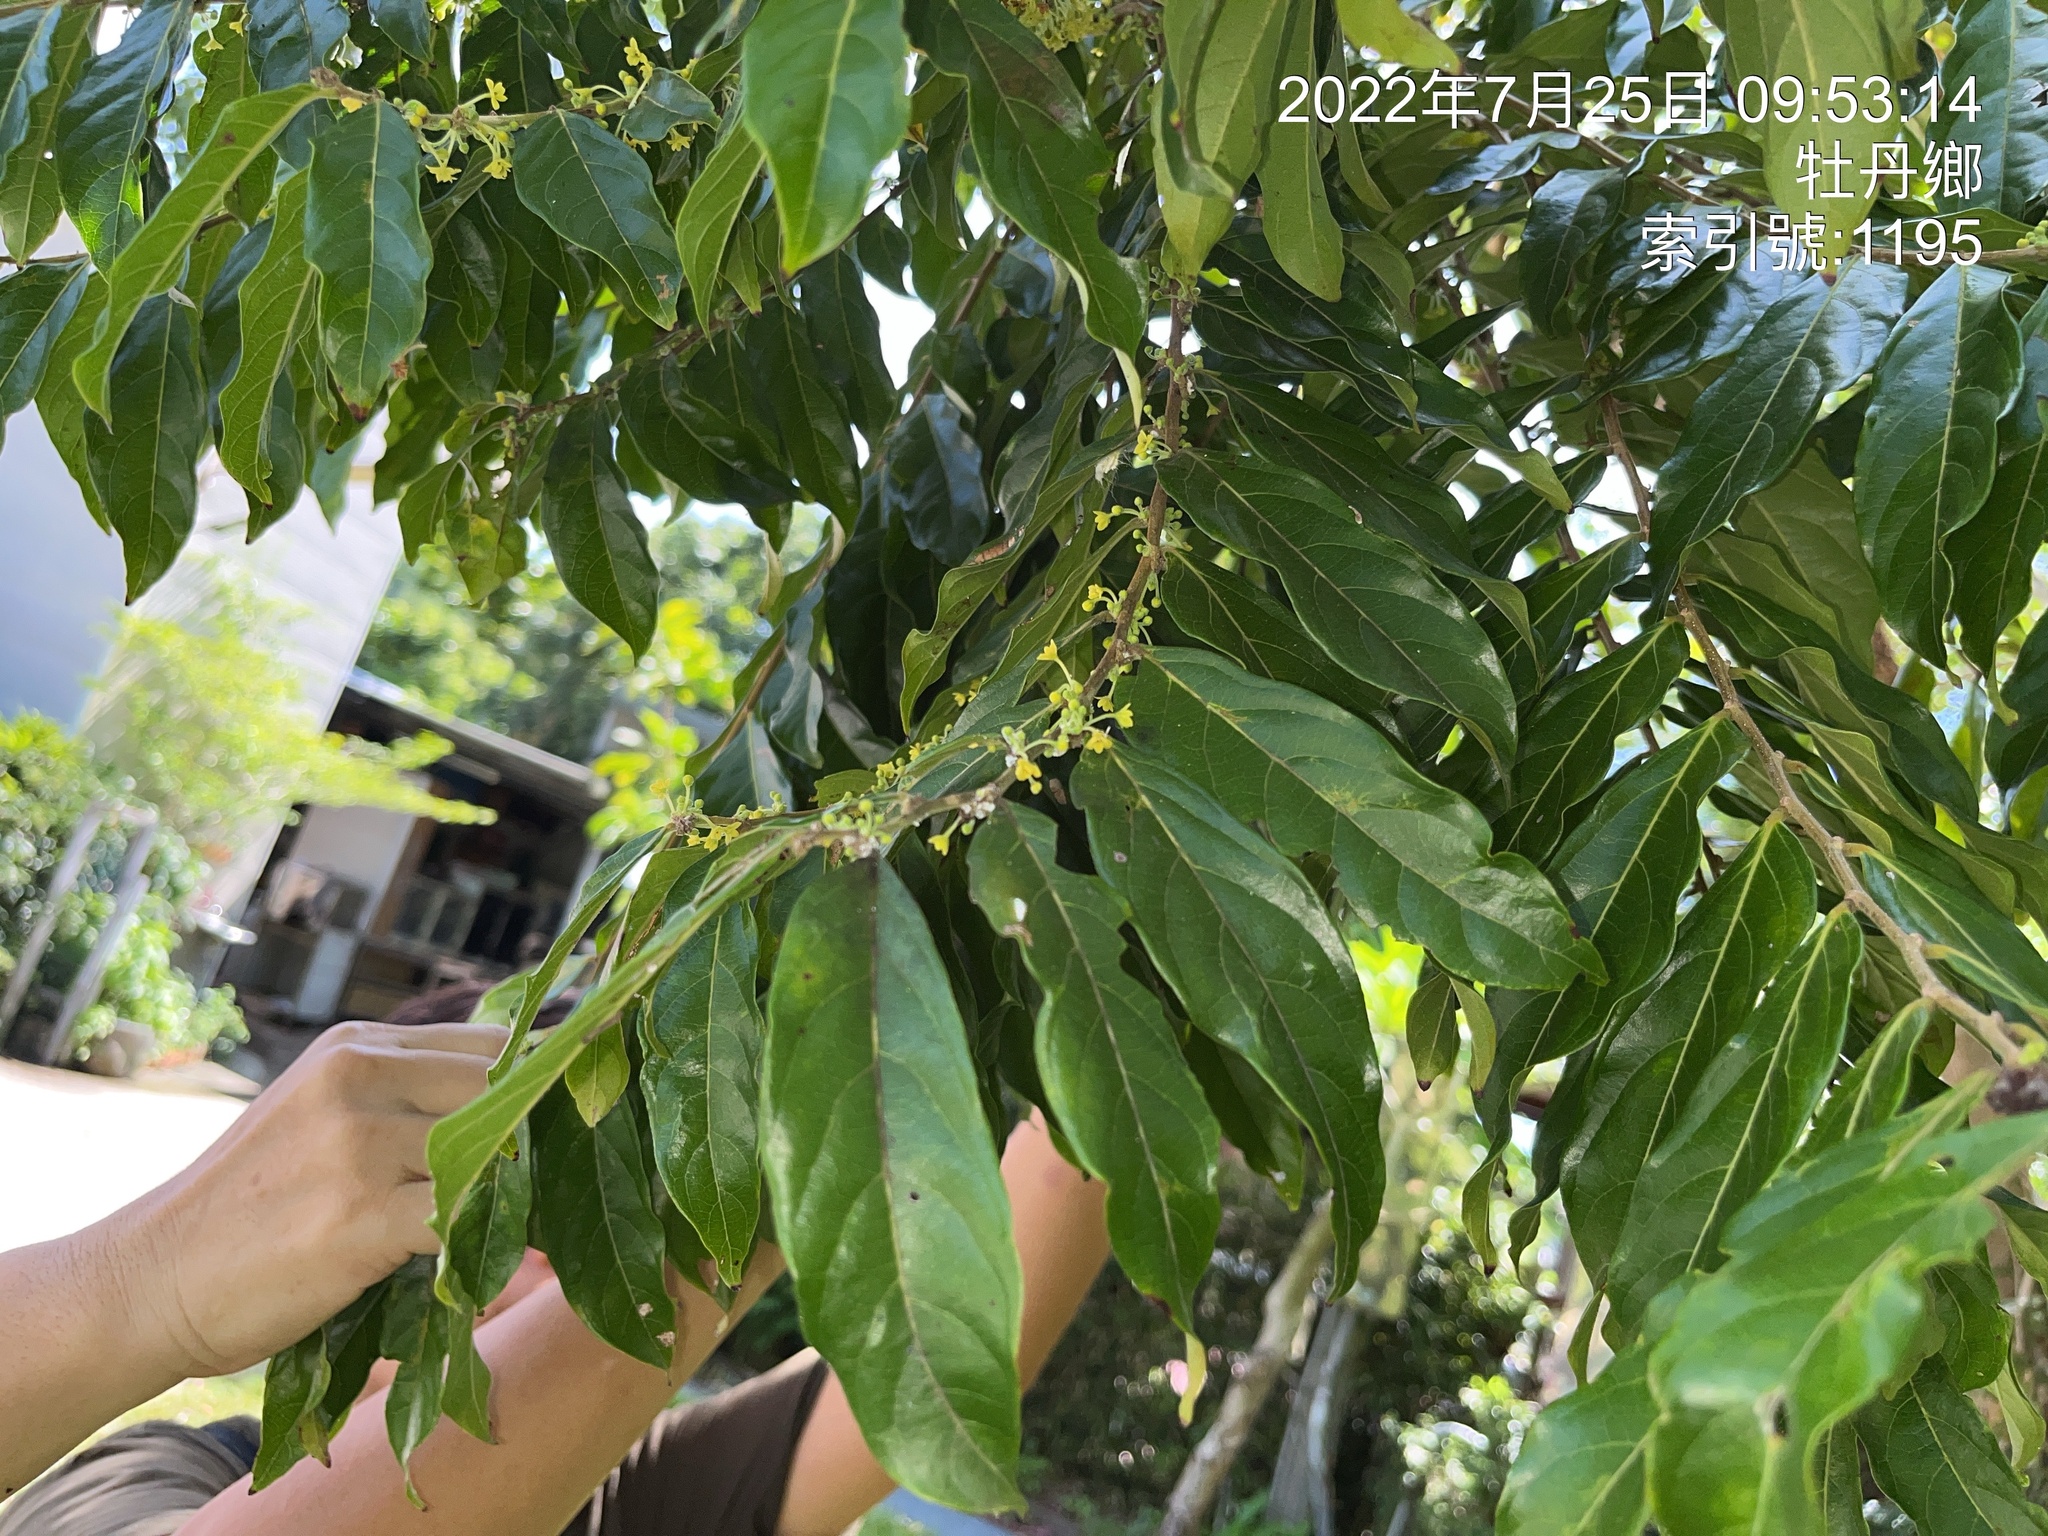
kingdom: Plantae
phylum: Tracheophyta
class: Magnoliopsida
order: Malpighiales
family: Phyllanthaceae
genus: Glochidion
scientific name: Glochidion philippicum
